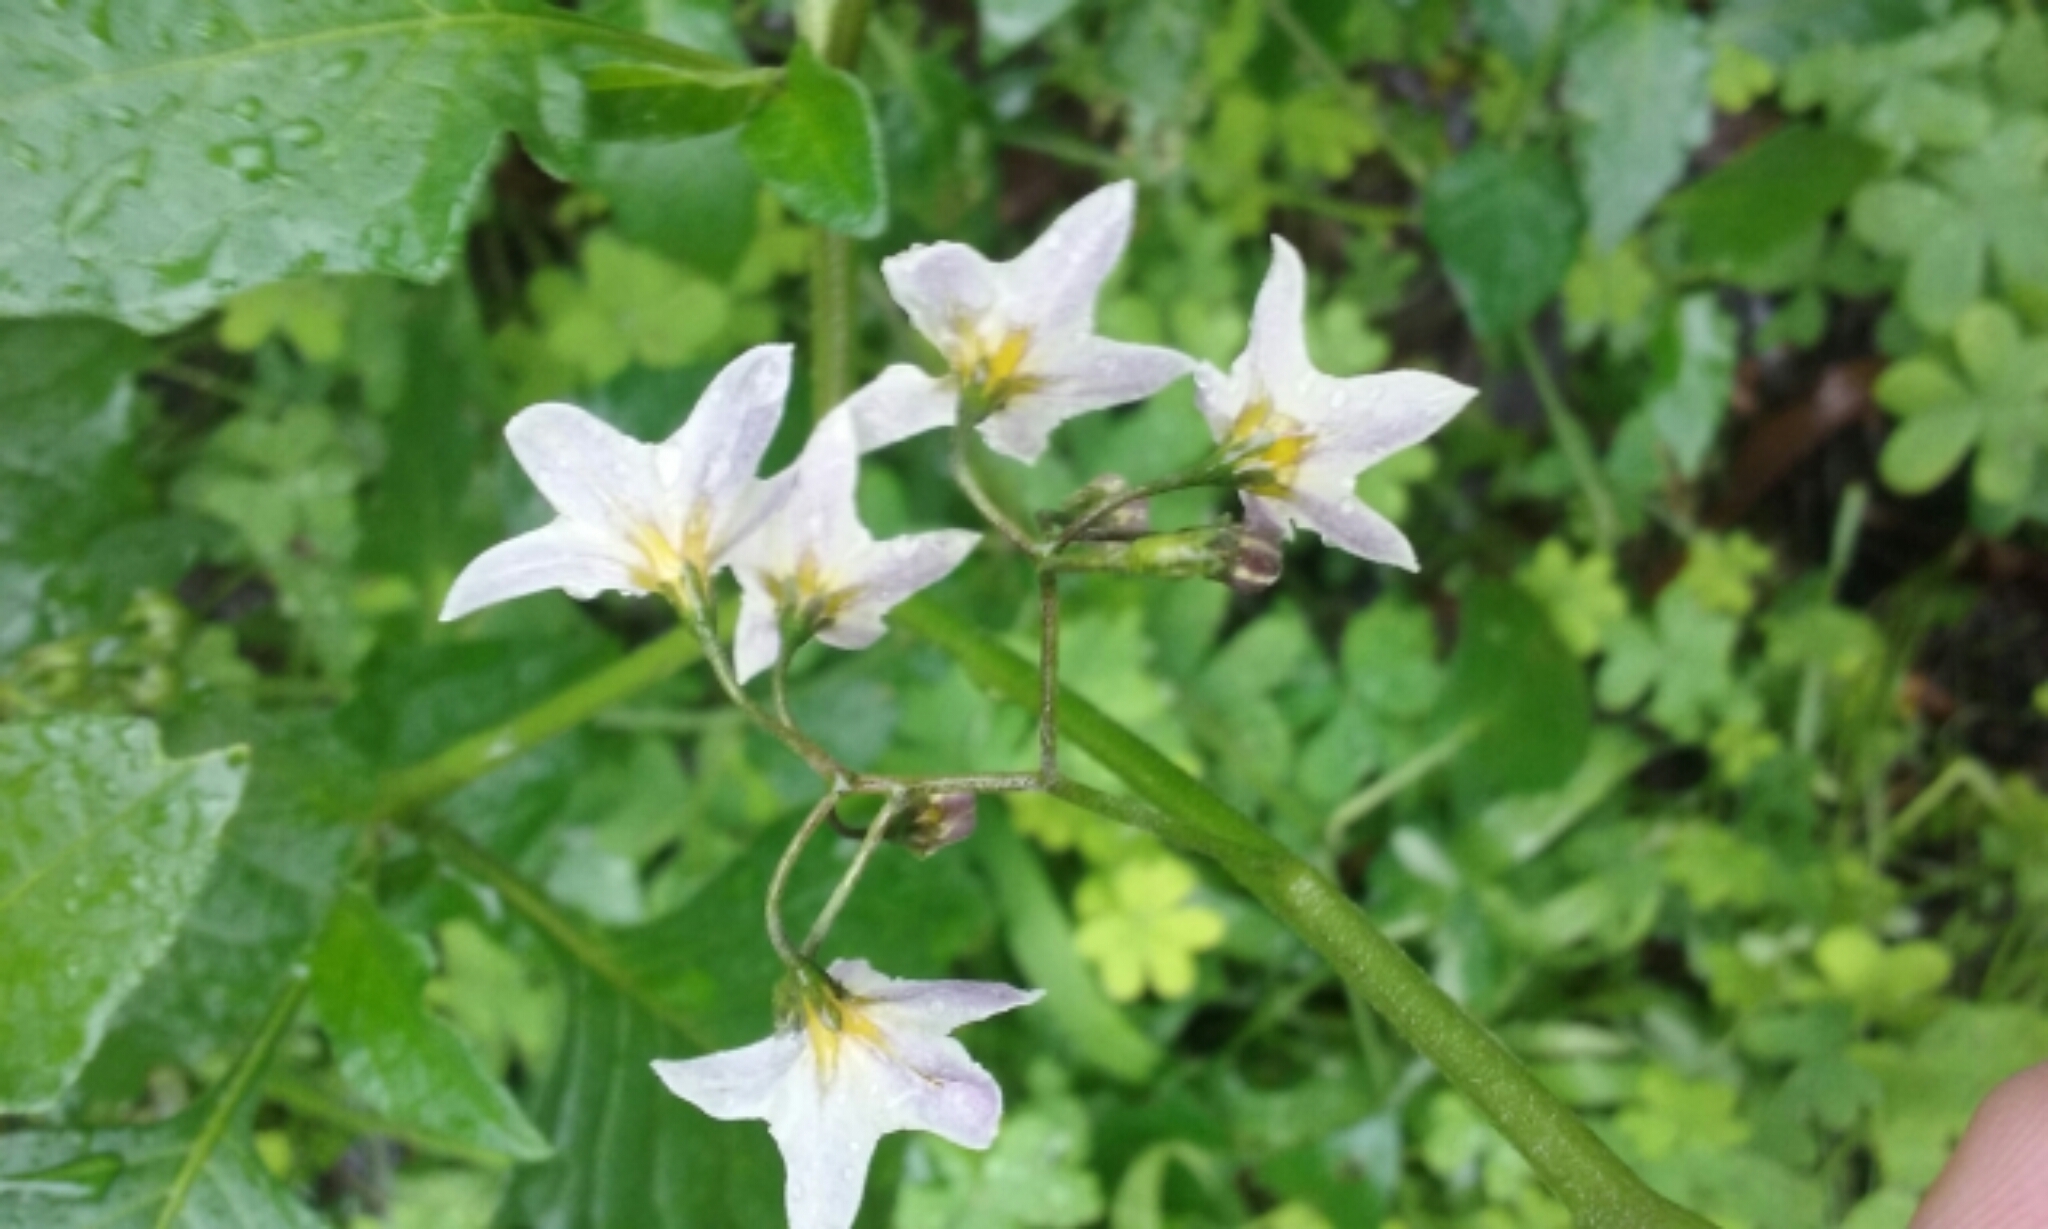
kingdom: Plantae
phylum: Tracheophyta
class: Magnoliopsida
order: Solanales
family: Solanaceae
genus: Solanum
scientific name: Solanum furcatum
